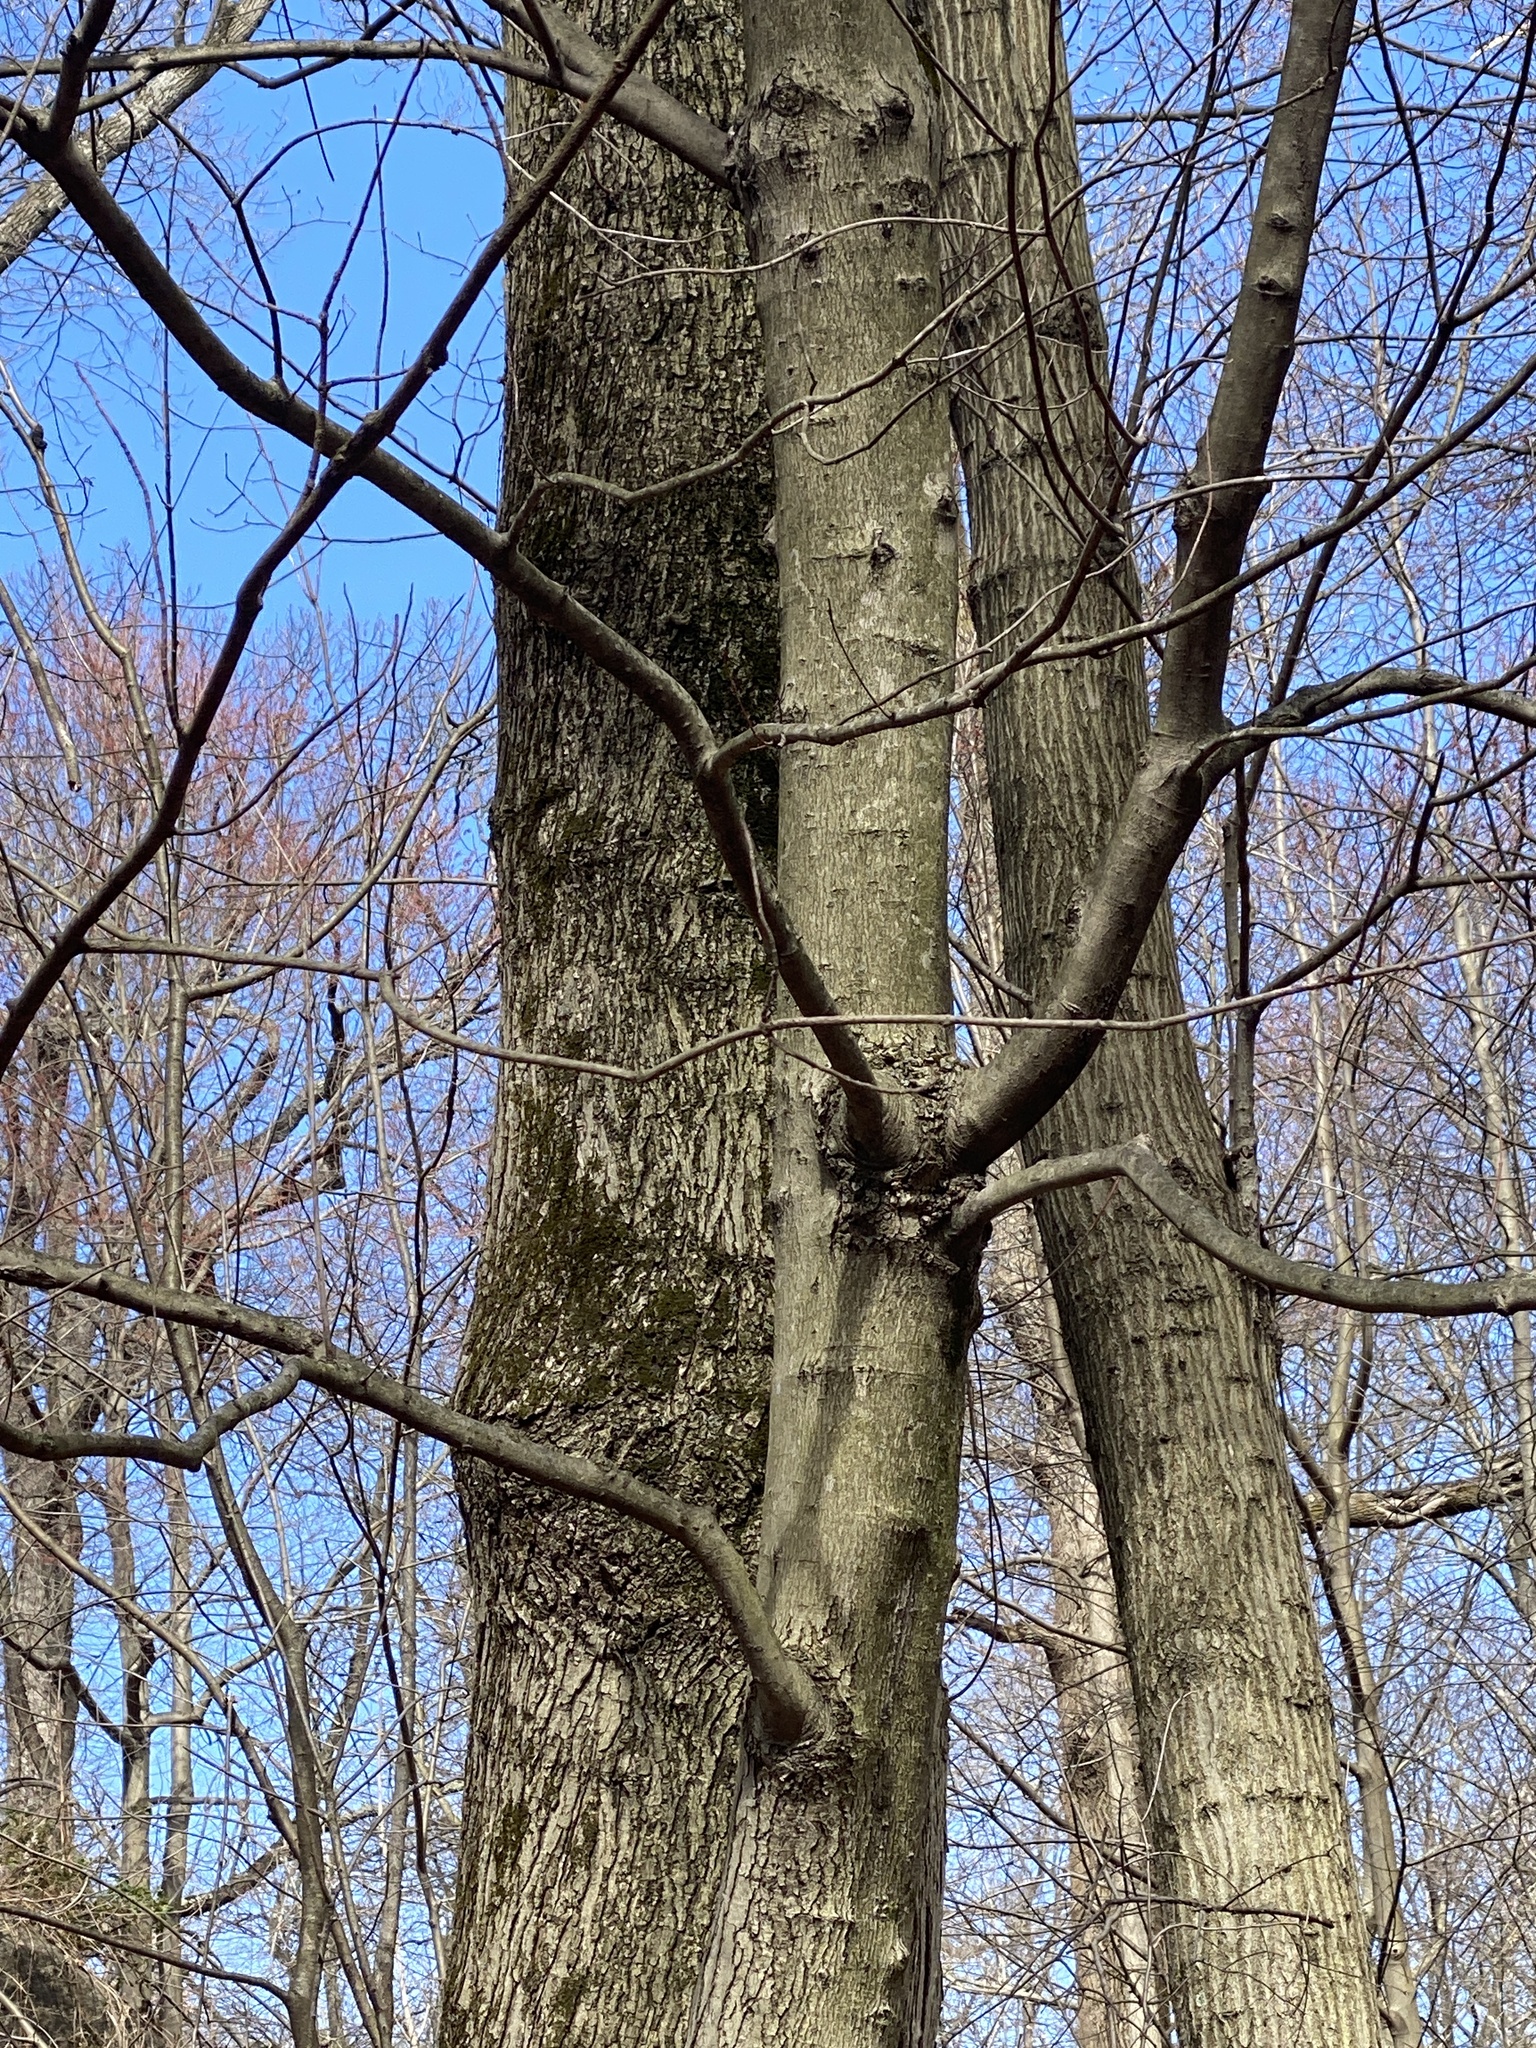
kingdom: Plantae
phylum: Tracheophyta
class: Magnoliopsida
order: Sapindales
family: Sapindaceae
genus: Acer
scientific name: Acer rubrum
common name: Red maple
